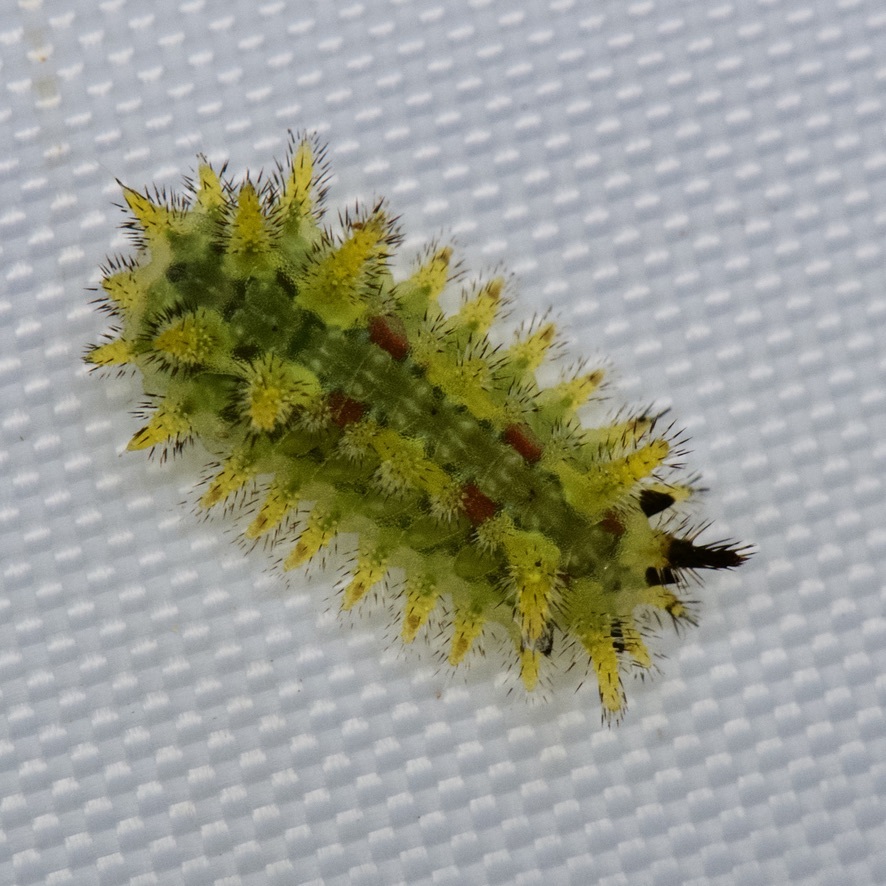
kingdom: Animalia
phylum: Arthropoda
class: Insecta
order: Lepidoptera
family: Limacodidae
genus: Euclea
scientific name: Euclea delphinii
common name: Spiny oak-slug moth
